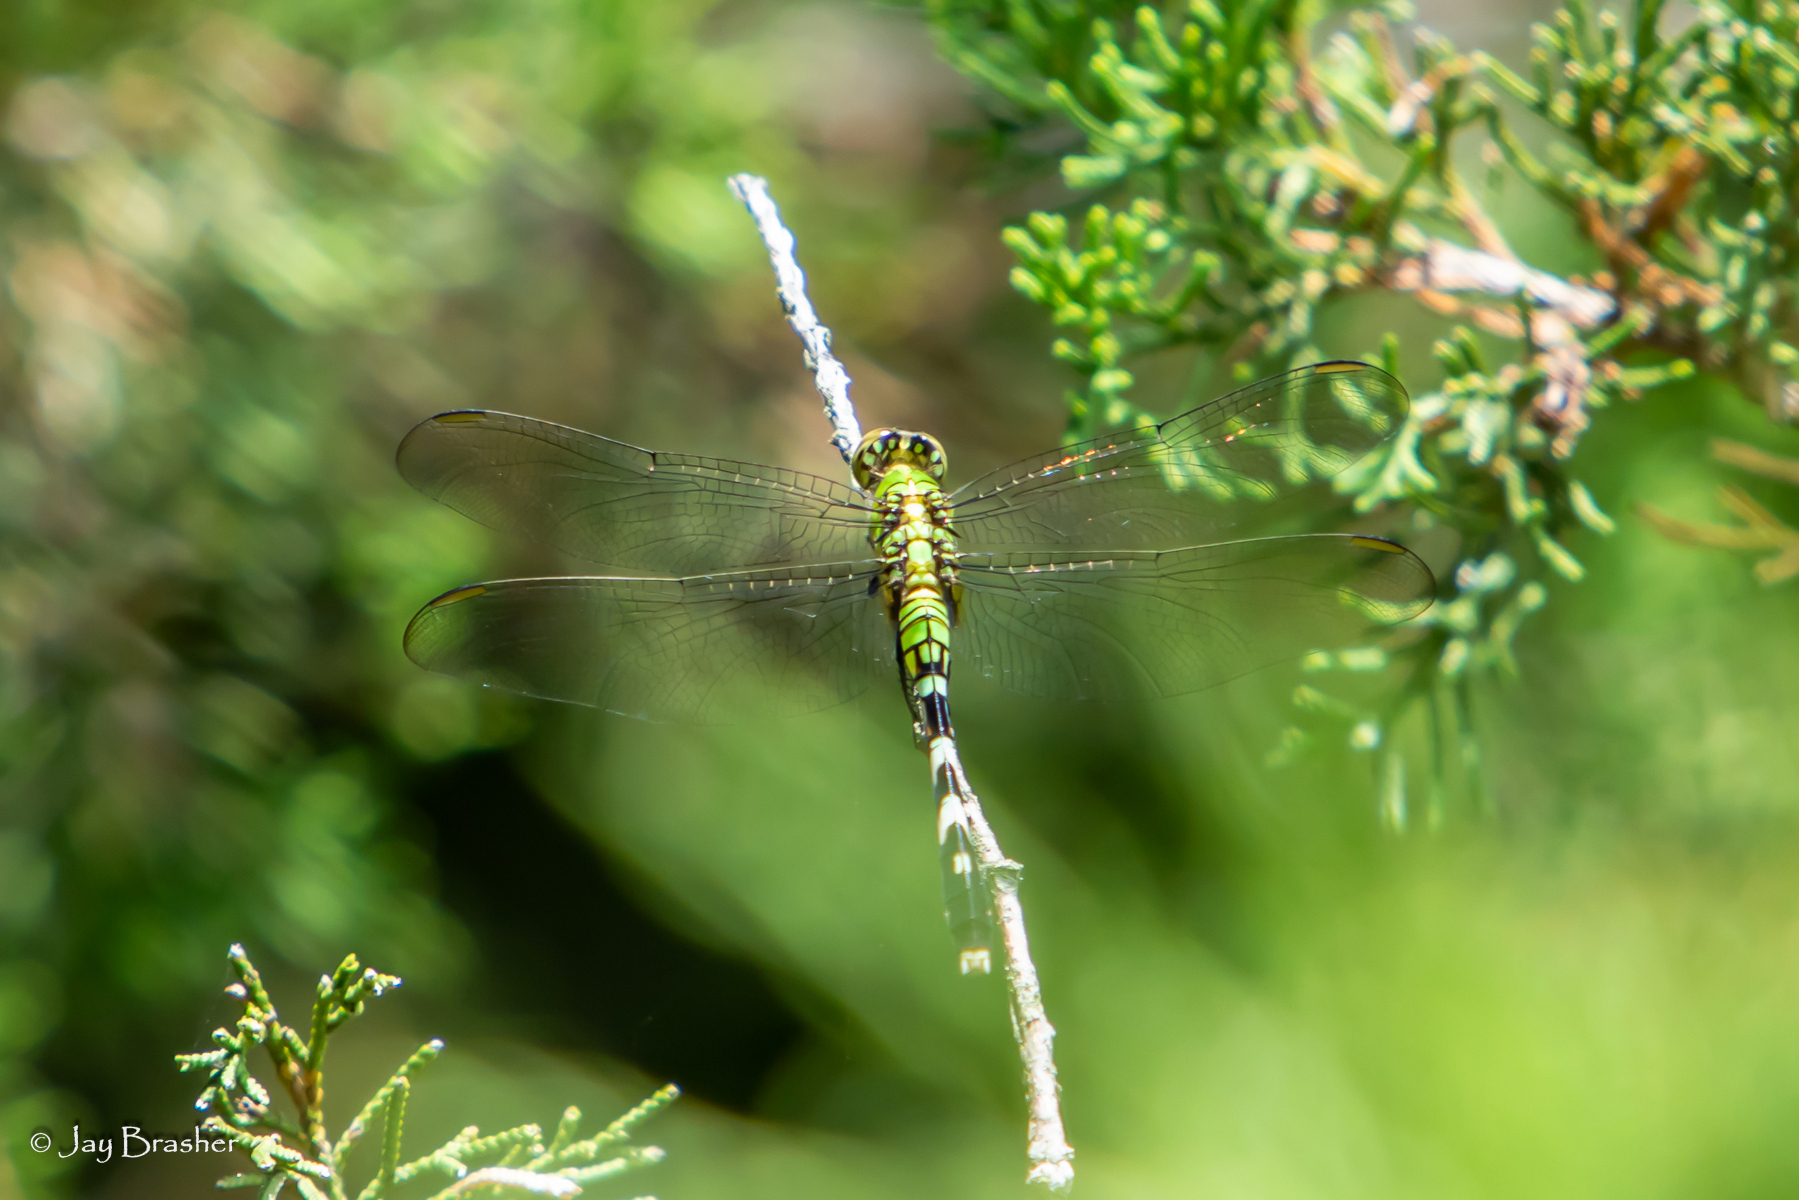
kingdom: Animalia
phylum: Arthropoda
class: Insecta
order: Odonata
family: Libellulidae
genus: Erythemis
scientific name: Erythemis simplicicollis
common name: Eastern pondhawk
